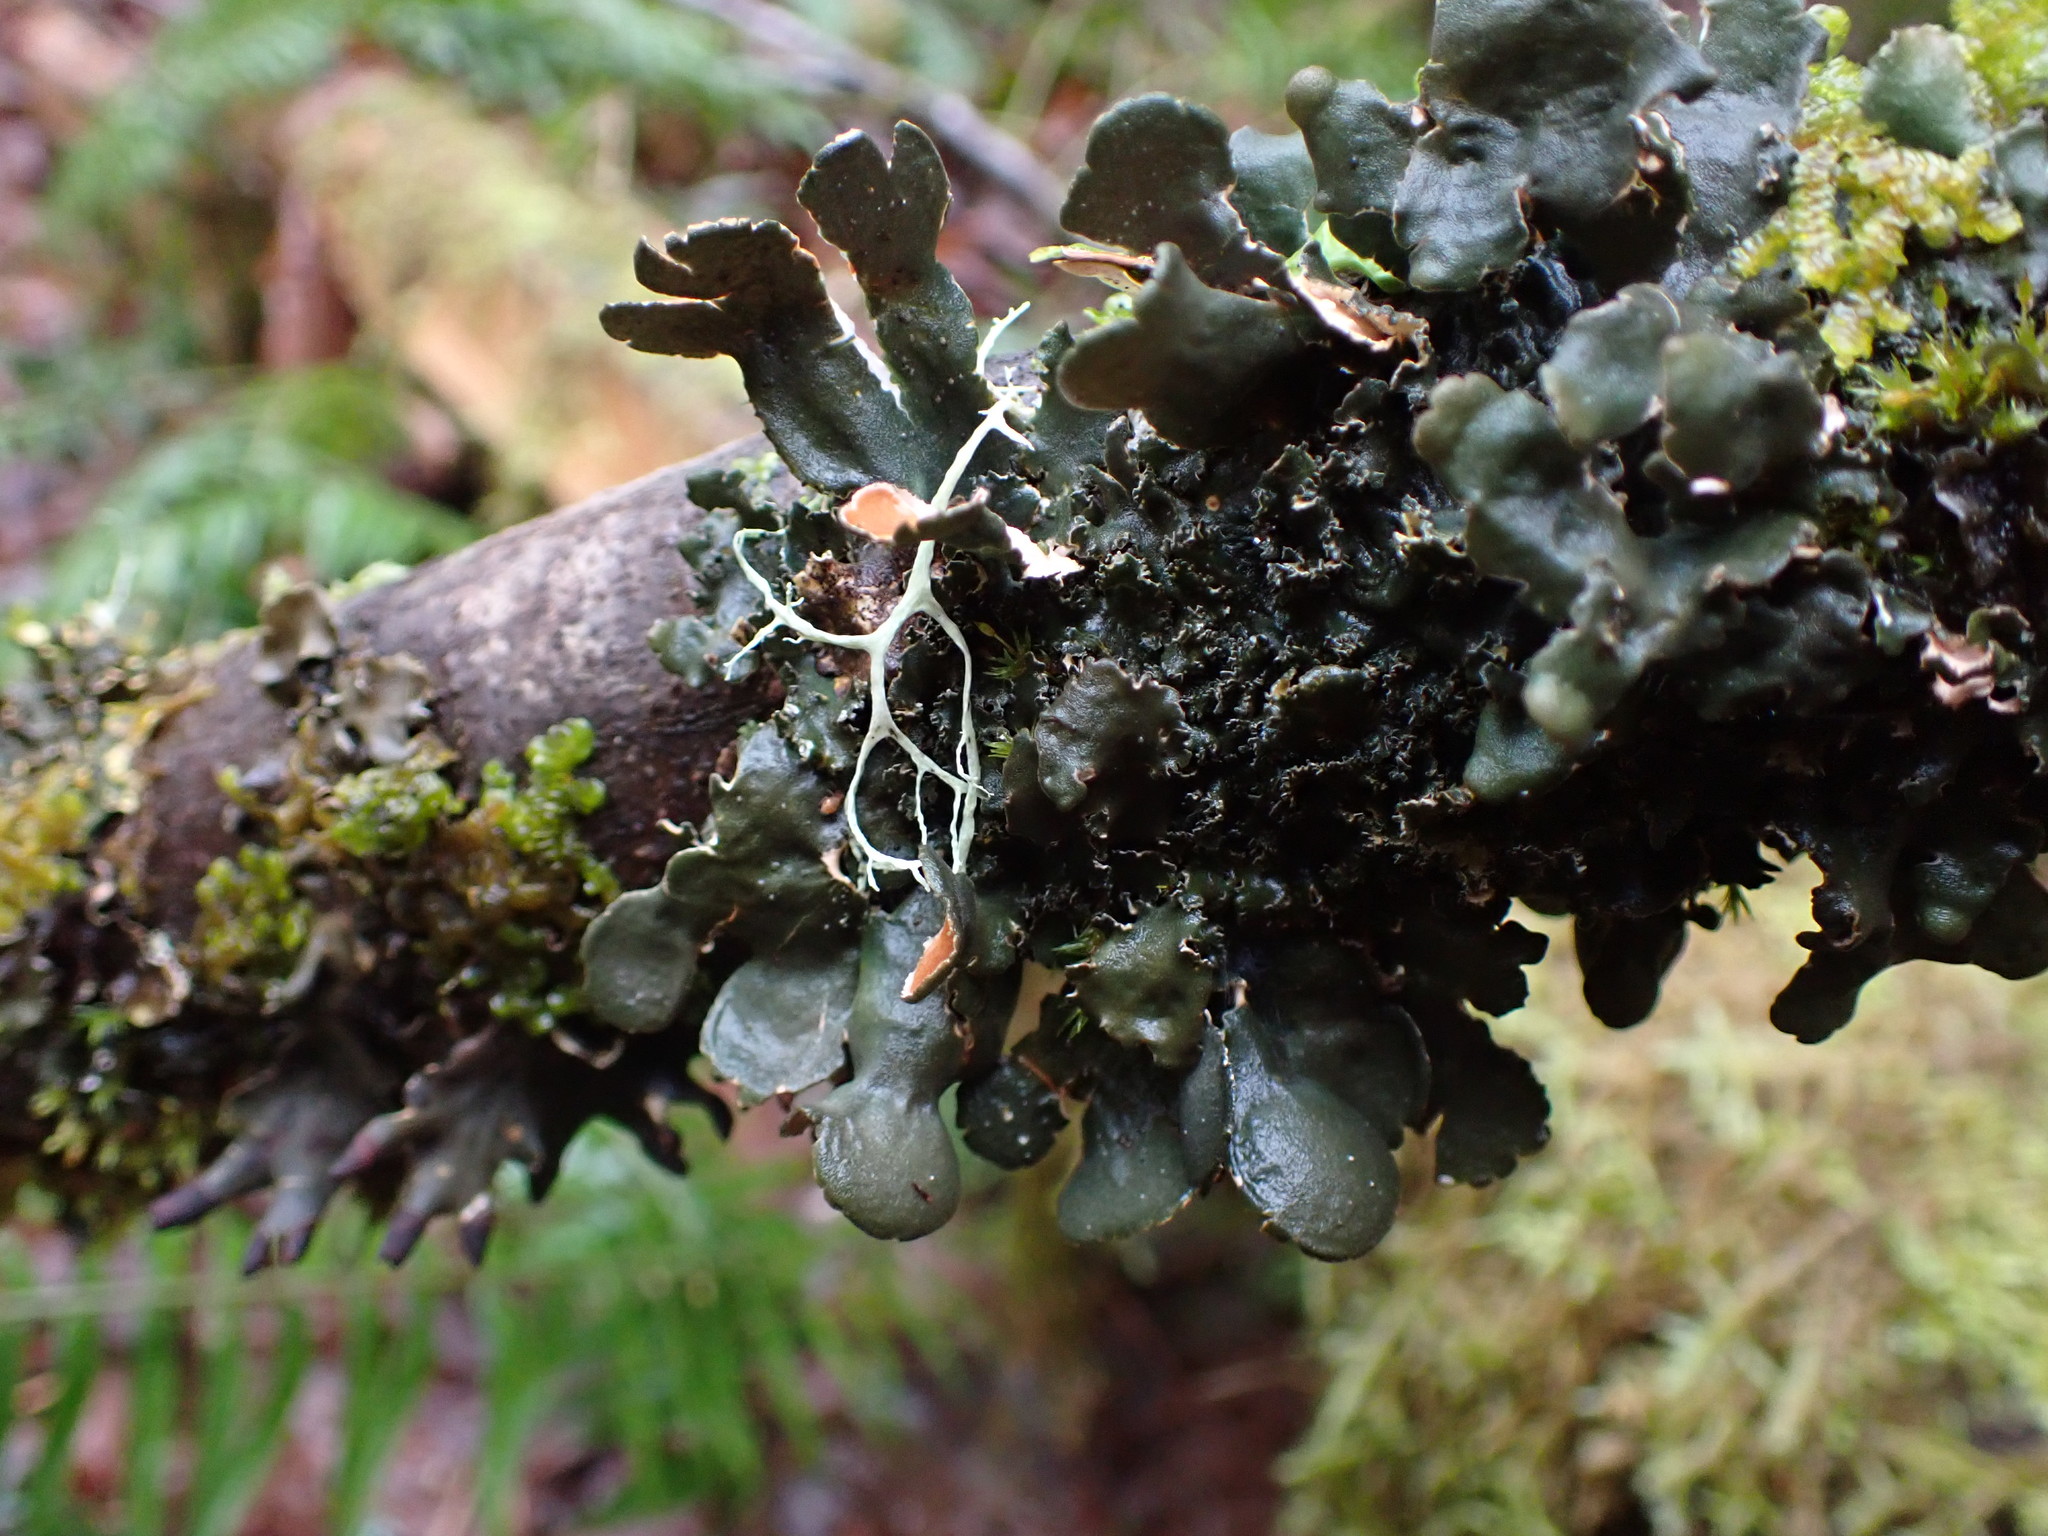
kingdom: Fungi
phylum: Ascomycota
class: Lecanoromycetes
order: Peltigerales
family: Nephromataceae
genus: Nephroma
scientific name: Nephroma resupinatum
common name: Pimpled kidney lichen
